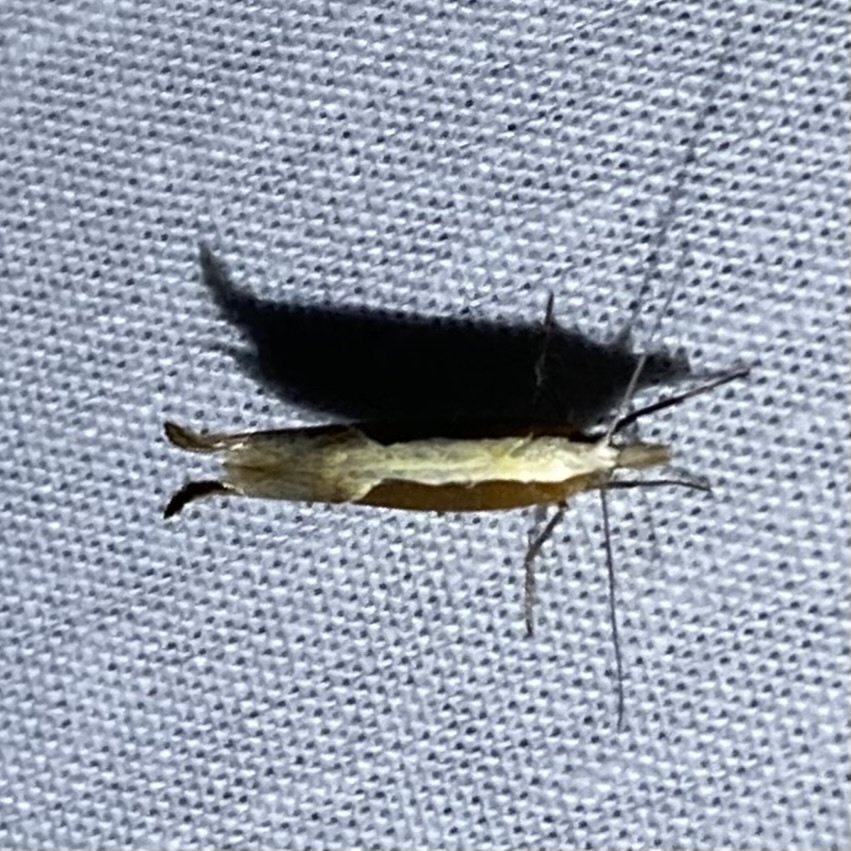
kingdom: Animalia
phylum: Arthropoda
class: Insecta
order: Lepidoptera
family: Ypsolophidae
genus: Ypsolopha
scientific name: Ypsolopha dentella
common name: Honeysuckle moth
